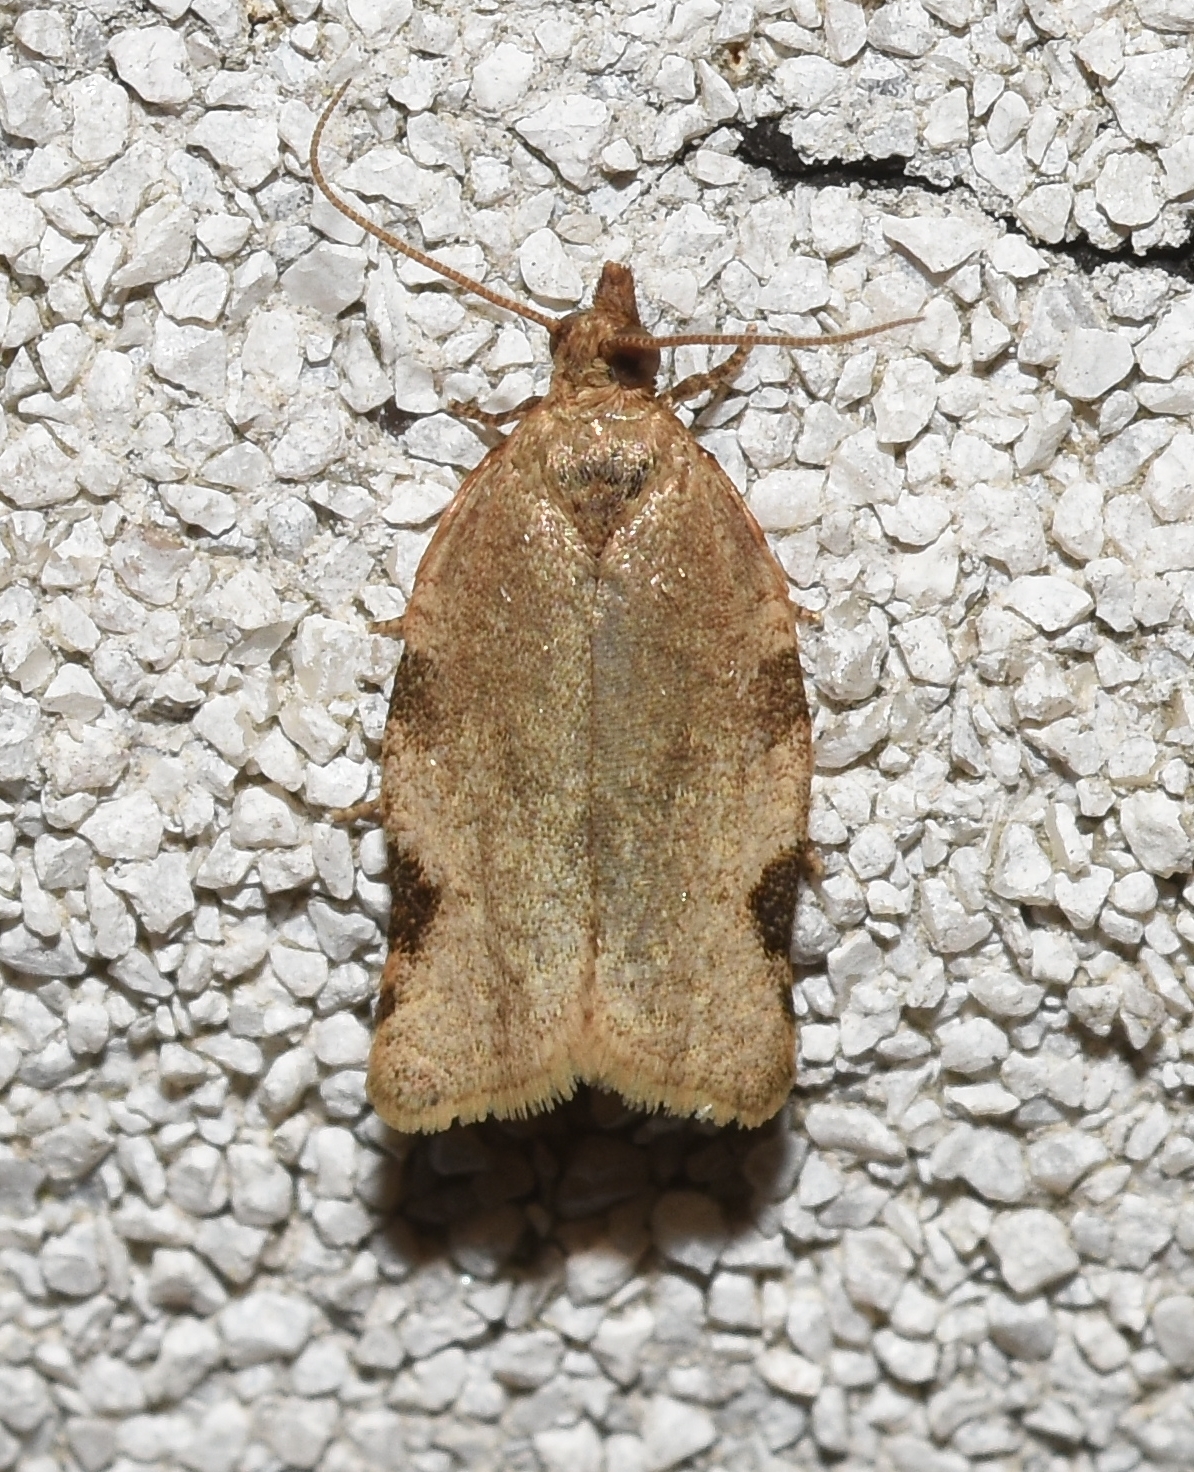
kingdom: Animalia
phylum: Arthropoda
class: Insecta
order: Lepidoptera
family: Tortricidae
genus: Clepsis
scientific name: Clepsis virescana
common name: Greenish apple moth
